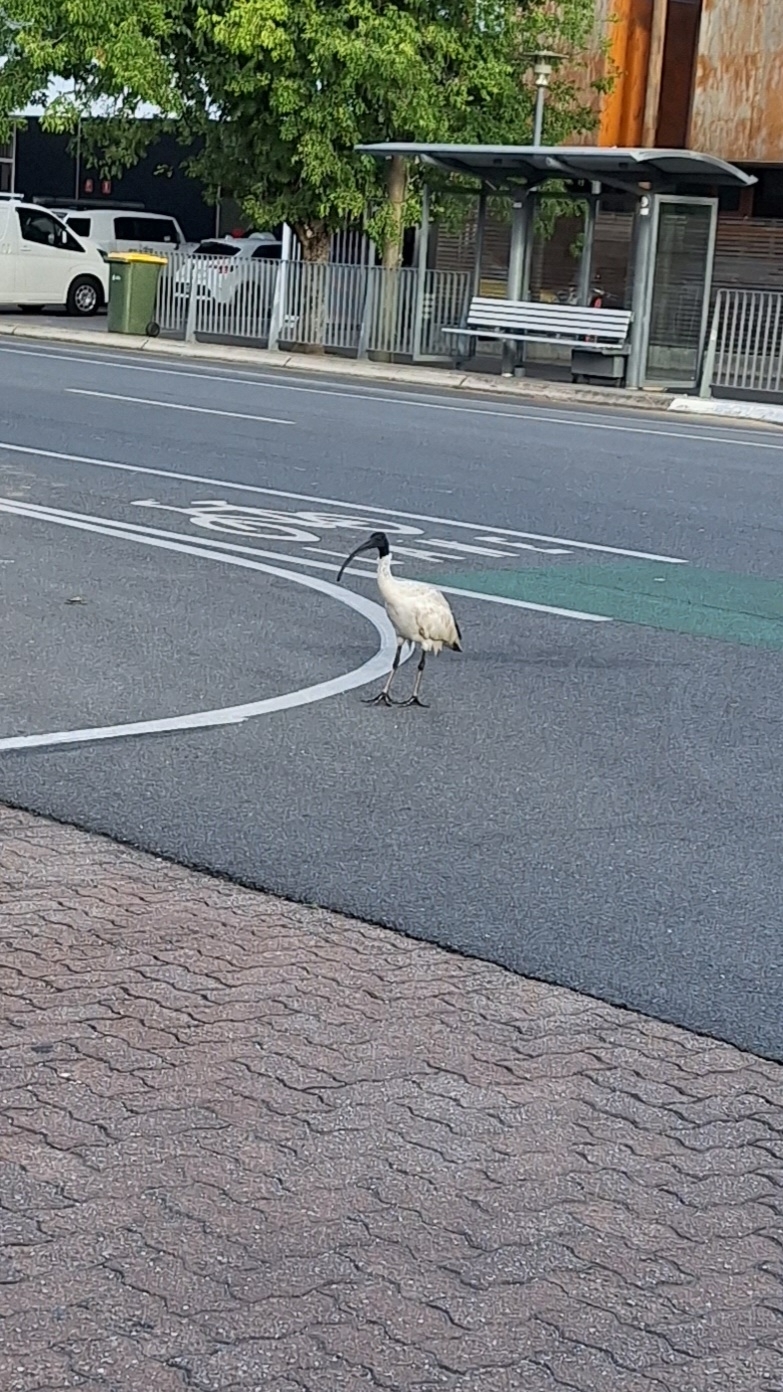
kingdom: Animalia
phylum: Chordata
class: Aves
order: Pelecaniformes
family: Threskiornithidae
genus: Threskiornis
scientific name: Threskiornis molucca
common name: Australian white ibis
